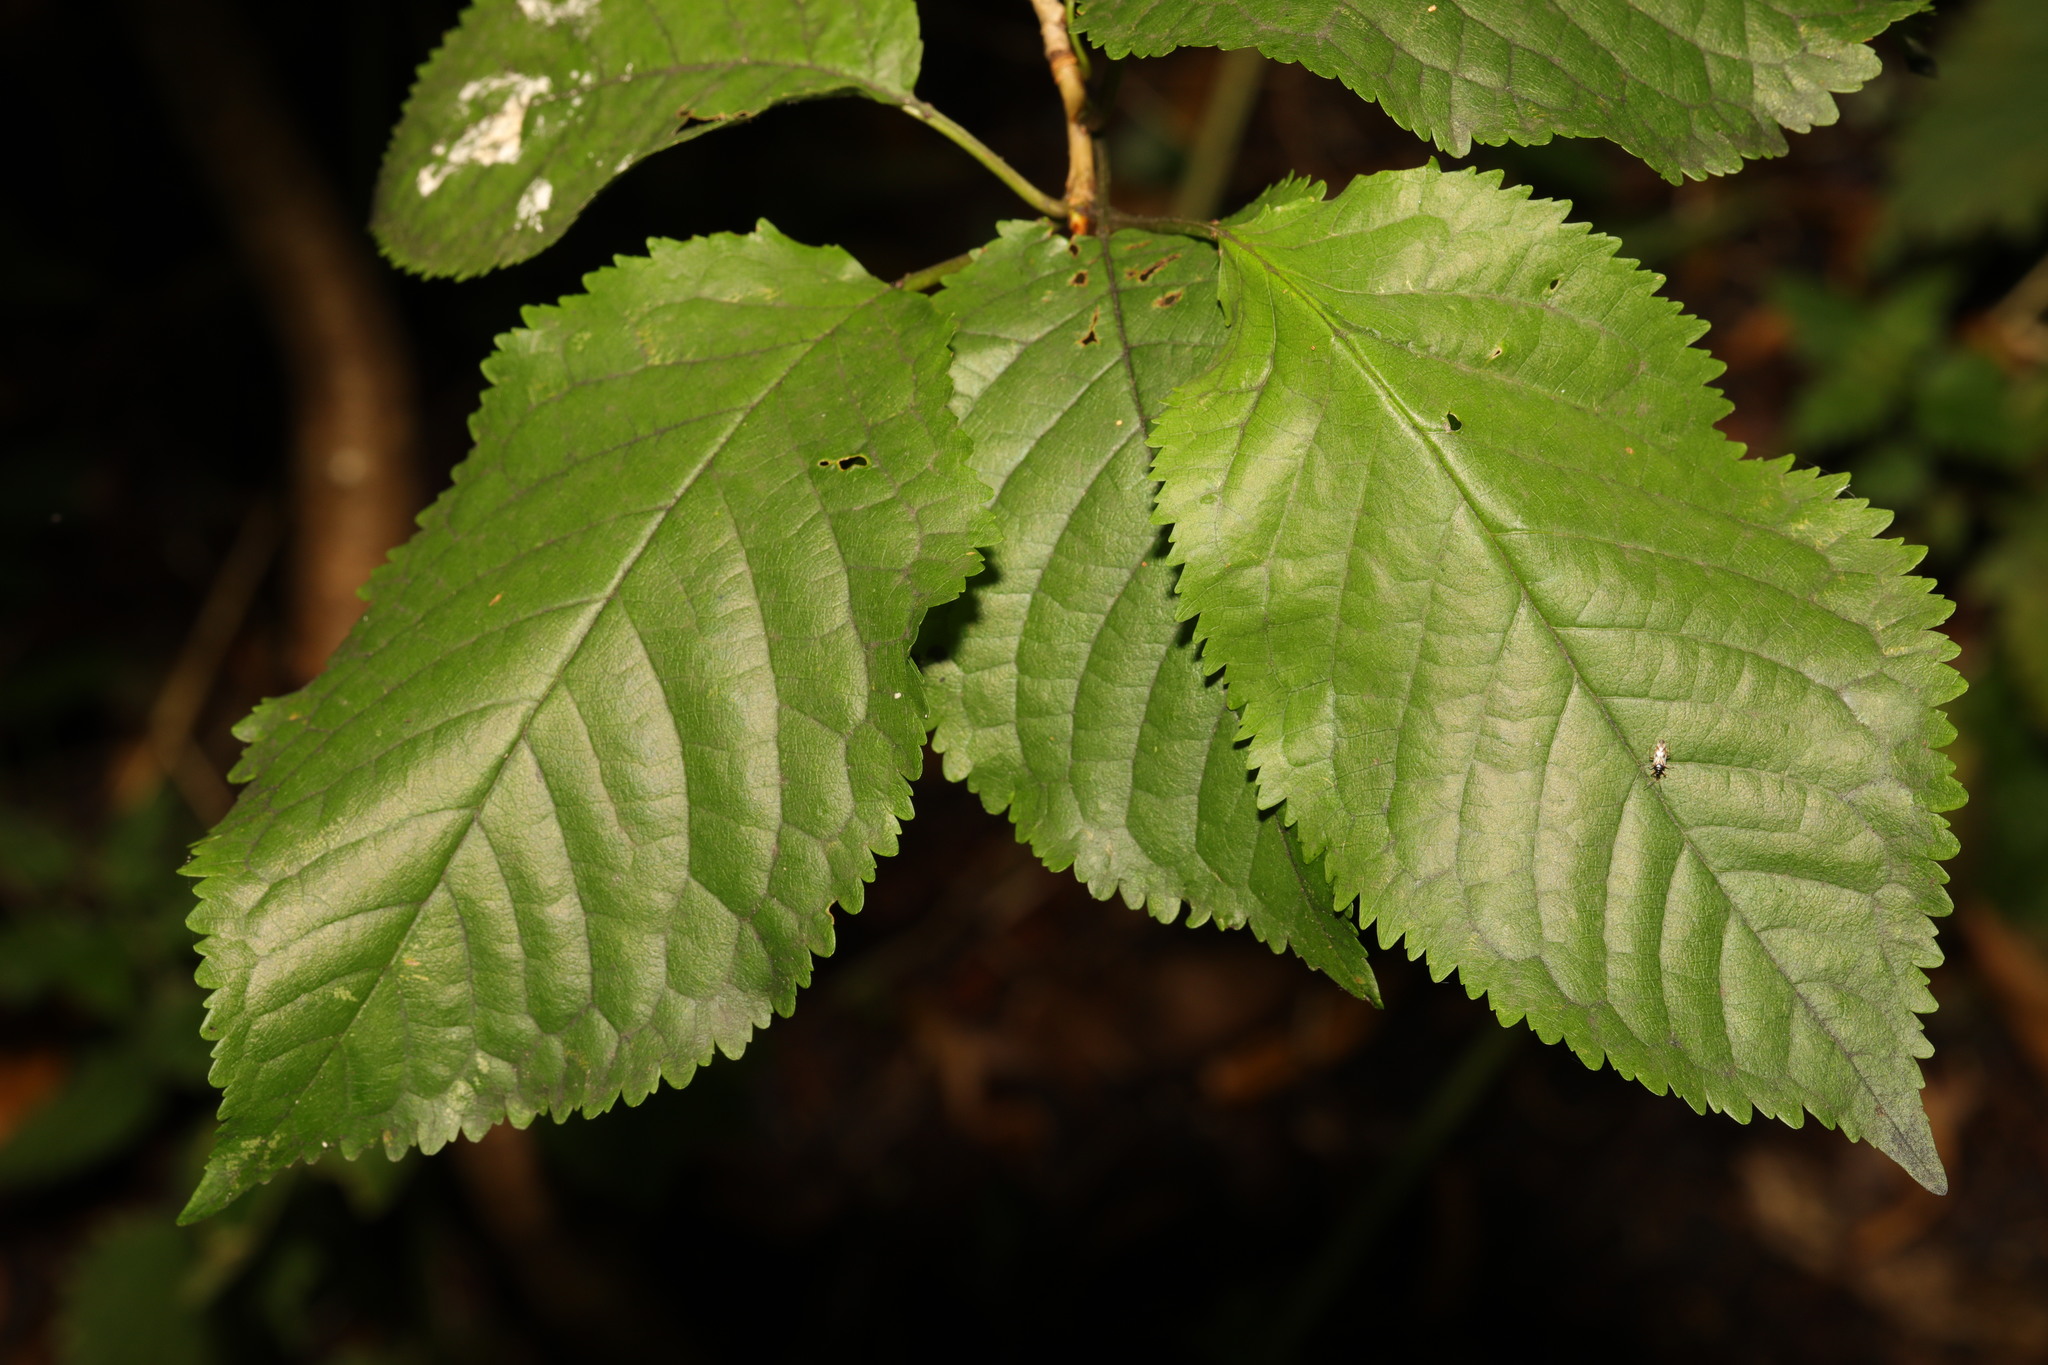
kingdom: Plantae
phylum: Tracheophyta
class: Magnoliopsida
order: Rosales
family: Rosaceae
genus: Prunus
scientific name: Prunus avium
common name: Sweet cherry
